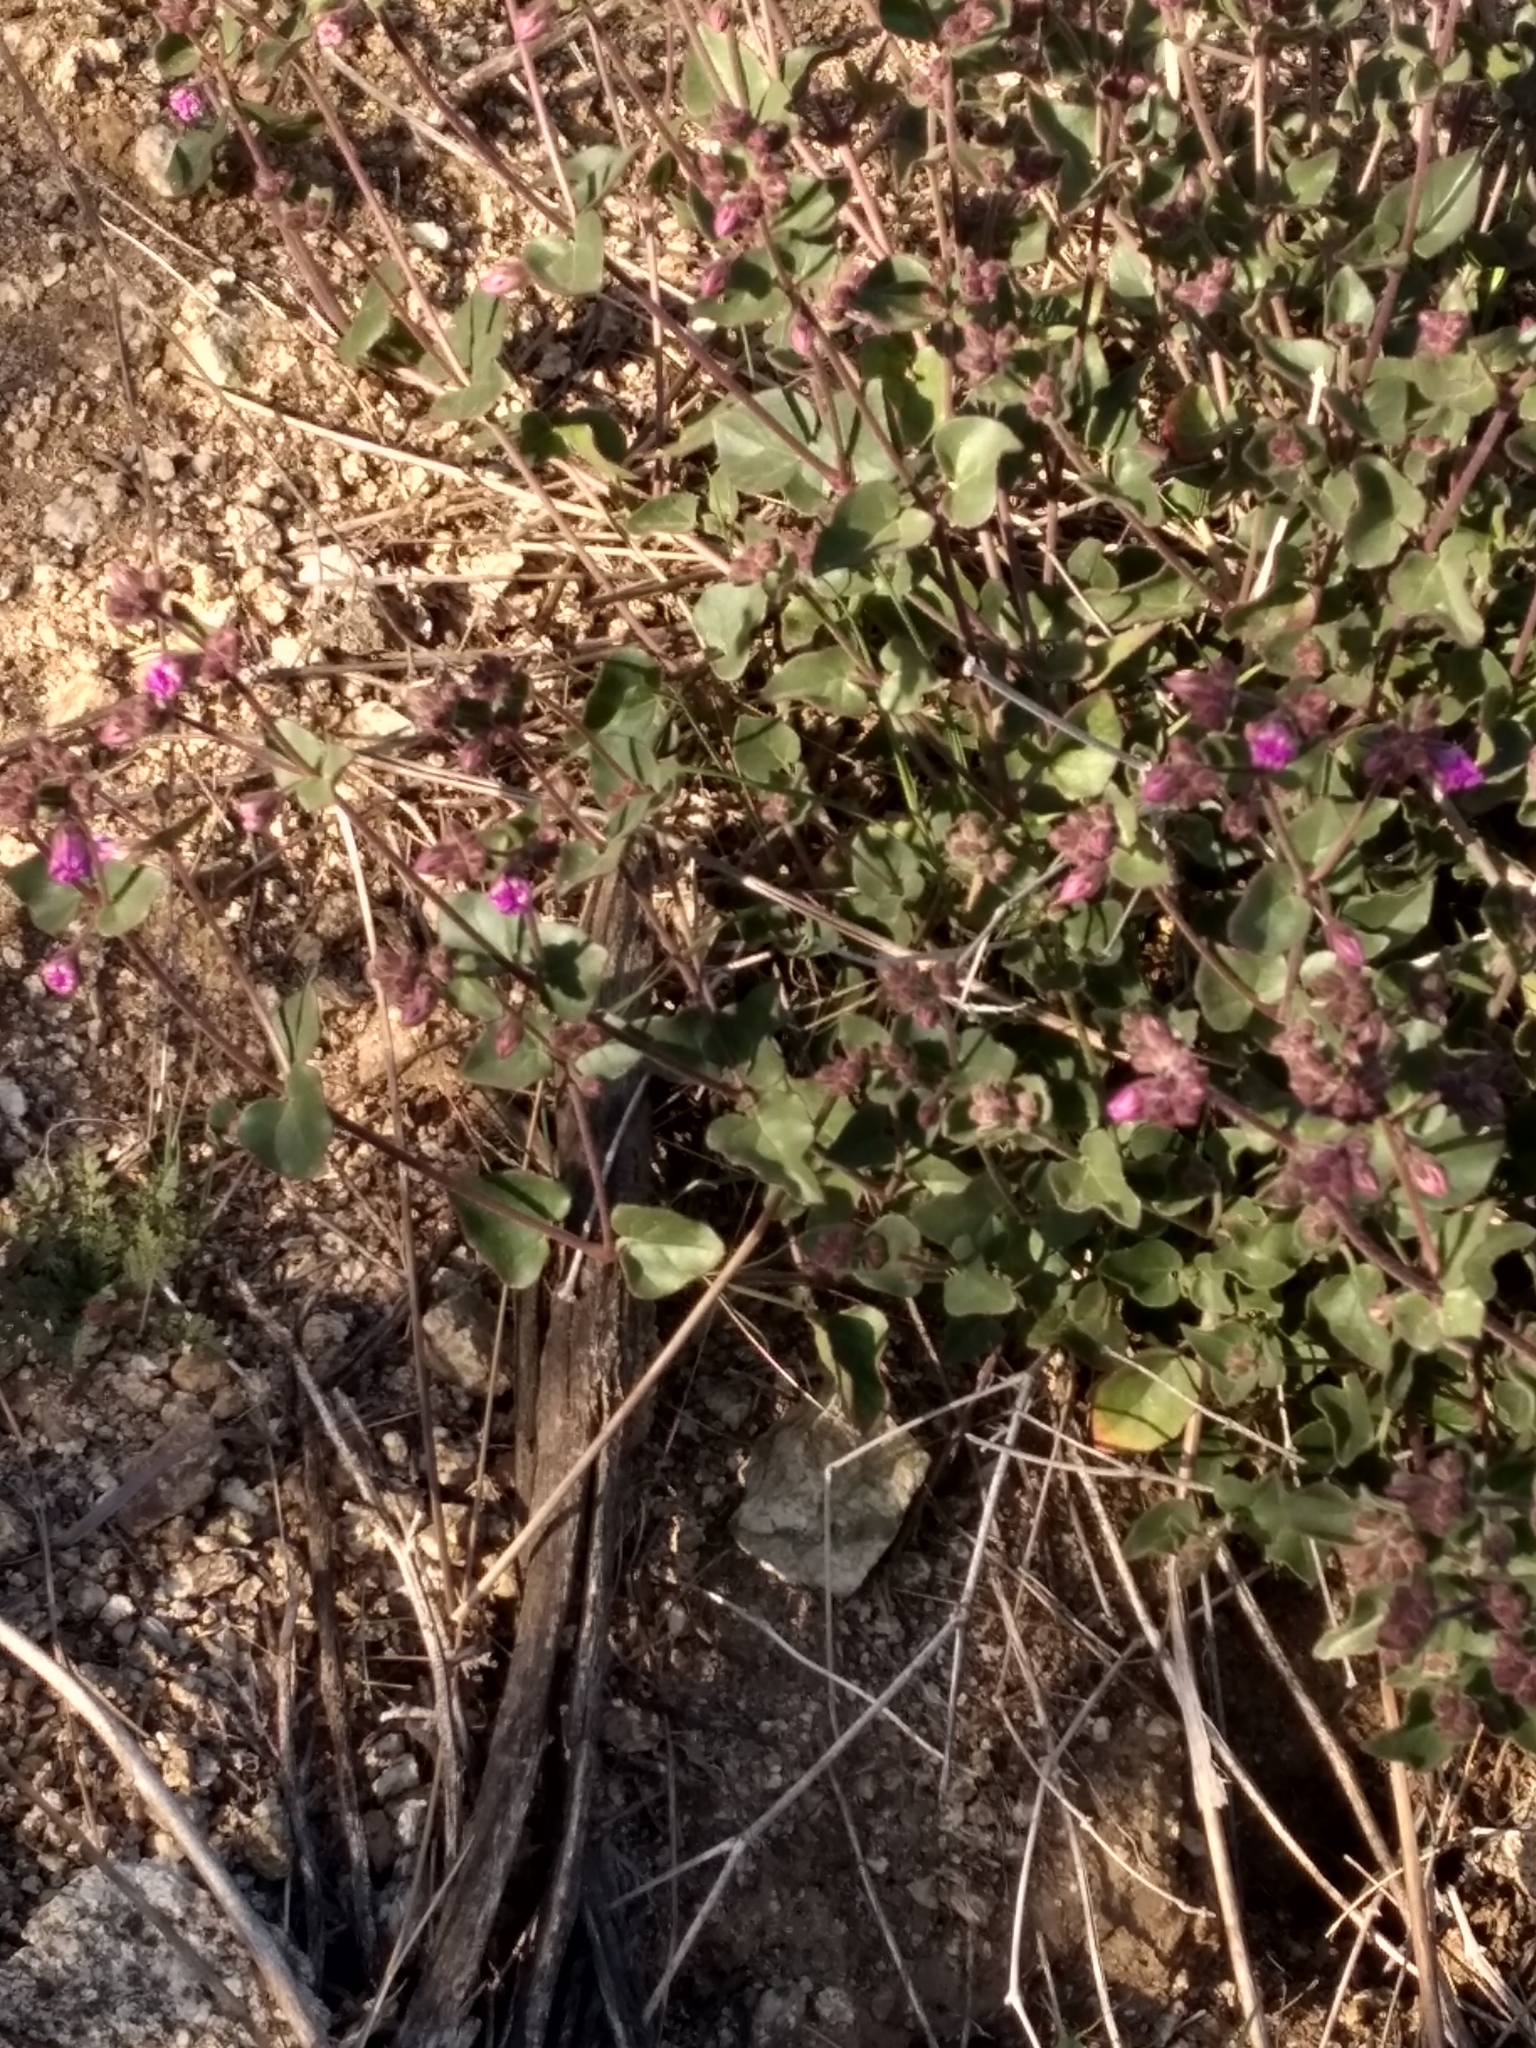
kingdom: Plantae
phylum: Tracheophyta
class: Magnoliopsida
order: Caryophyllales
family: Nyctaginaceae
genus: Mirabilis
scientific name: Mirabilis laevis
